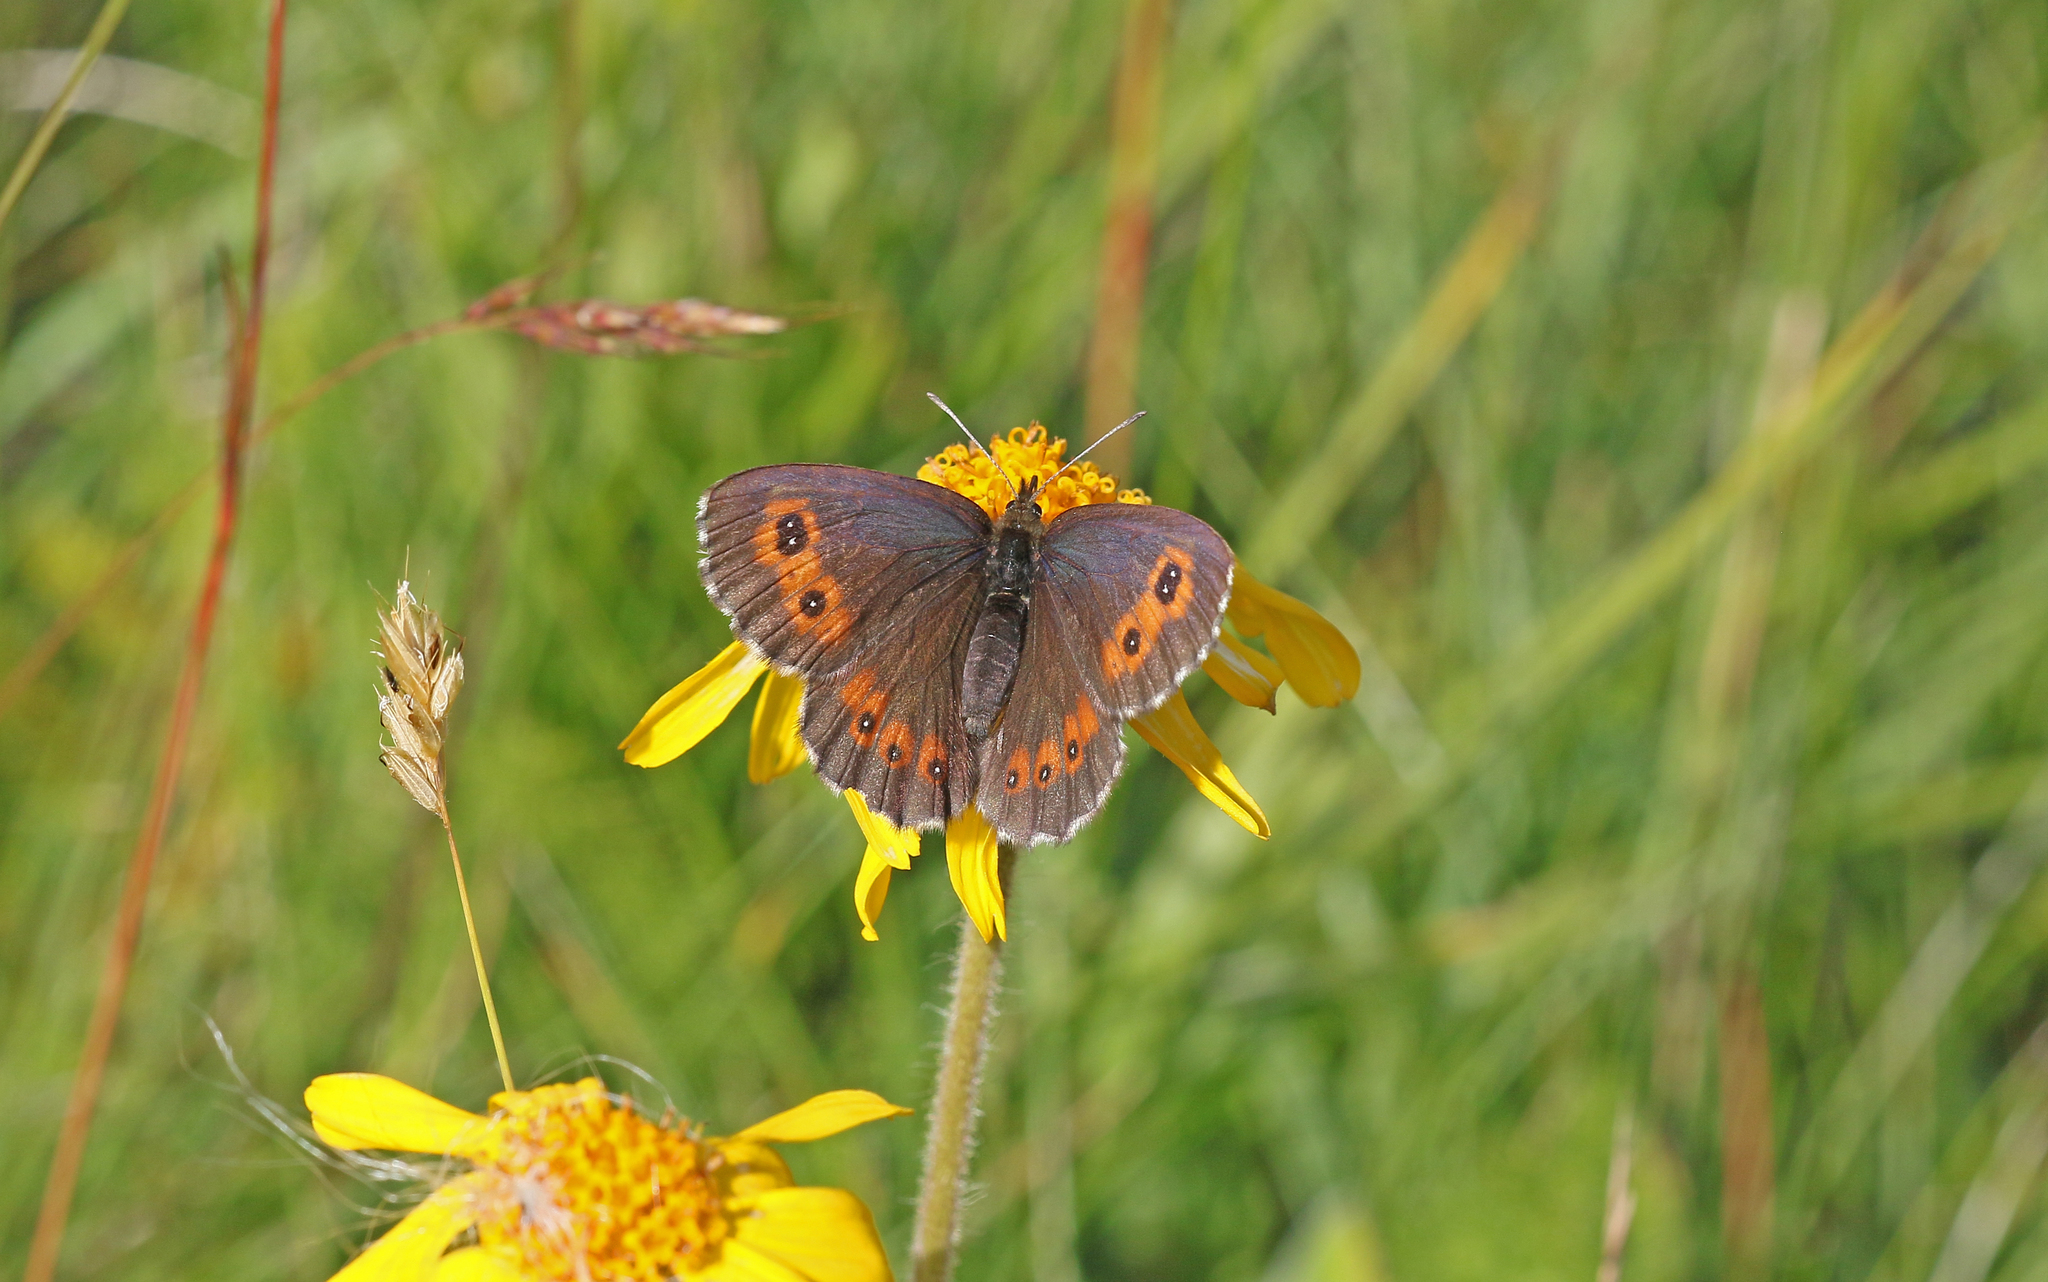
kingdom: Animalia
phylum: Arthropoda
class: Insecta
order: Lepidoptera
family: Nymphalidae
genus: Erebia
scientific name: Erebia euryale
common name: Large ringlet
